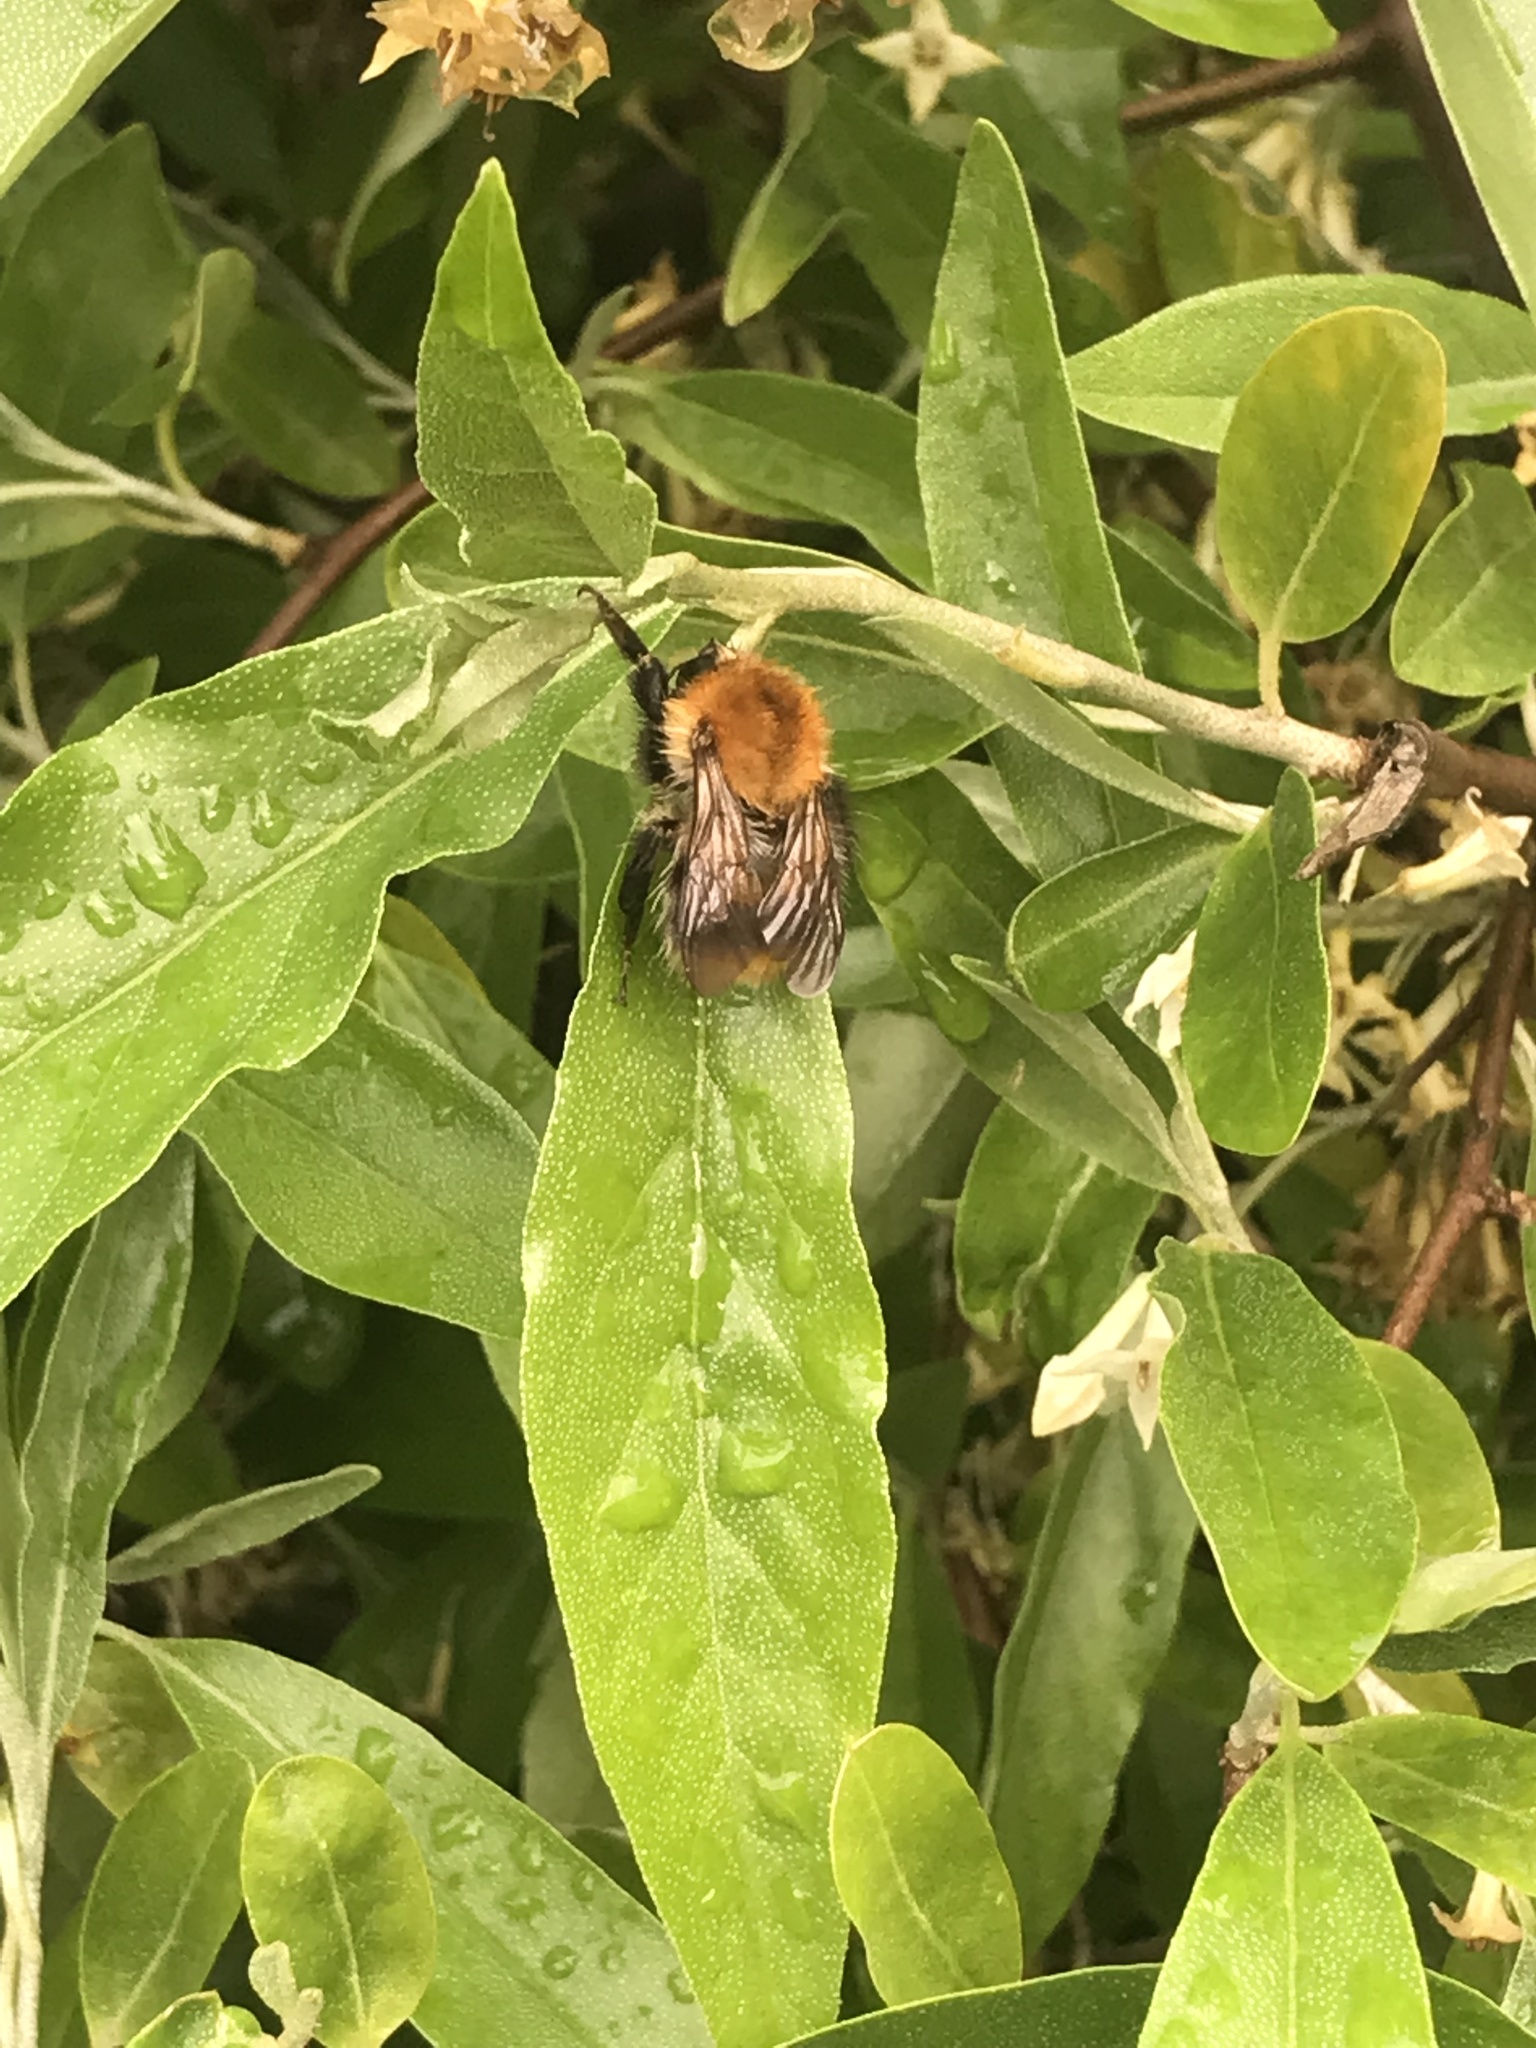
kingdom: Animalia
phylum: Arthropoda
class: Insecta
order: Hymenoptera
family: Apidae
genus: Bombus
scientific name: Bombus pascuorum
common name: Common carder bee
